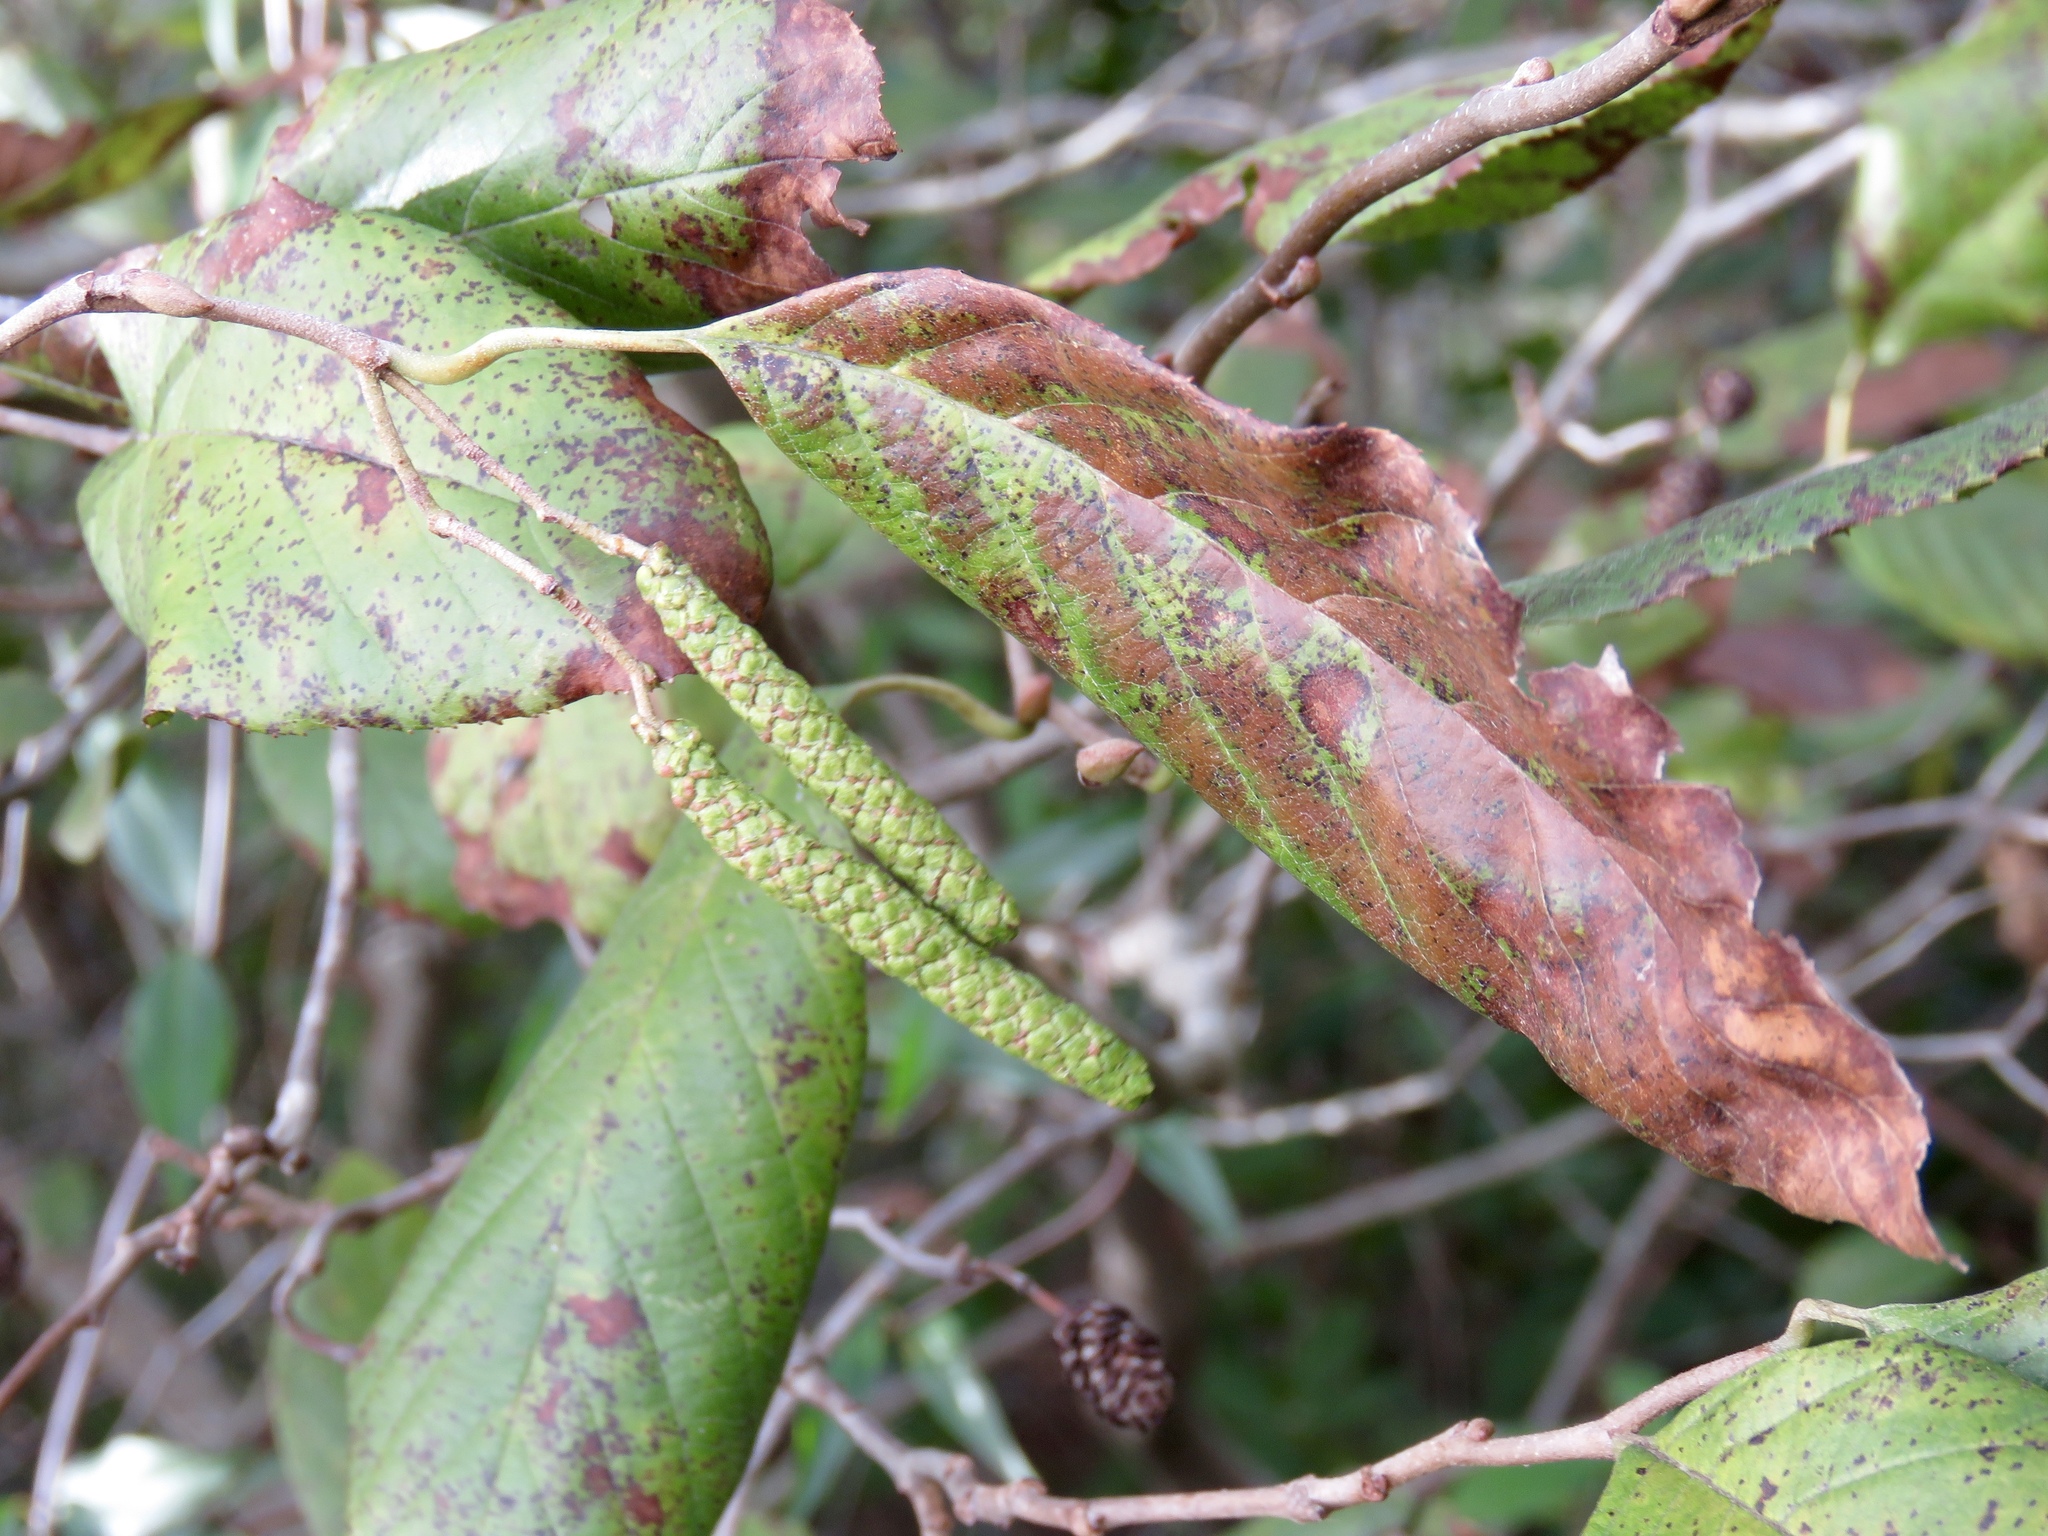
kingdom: Plantae
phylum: Tracheophyta
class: Magnoliopsida
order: Fagales
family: Betulaceae
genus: Alnus
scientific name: Alnus serrulata
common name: Hazel alder
